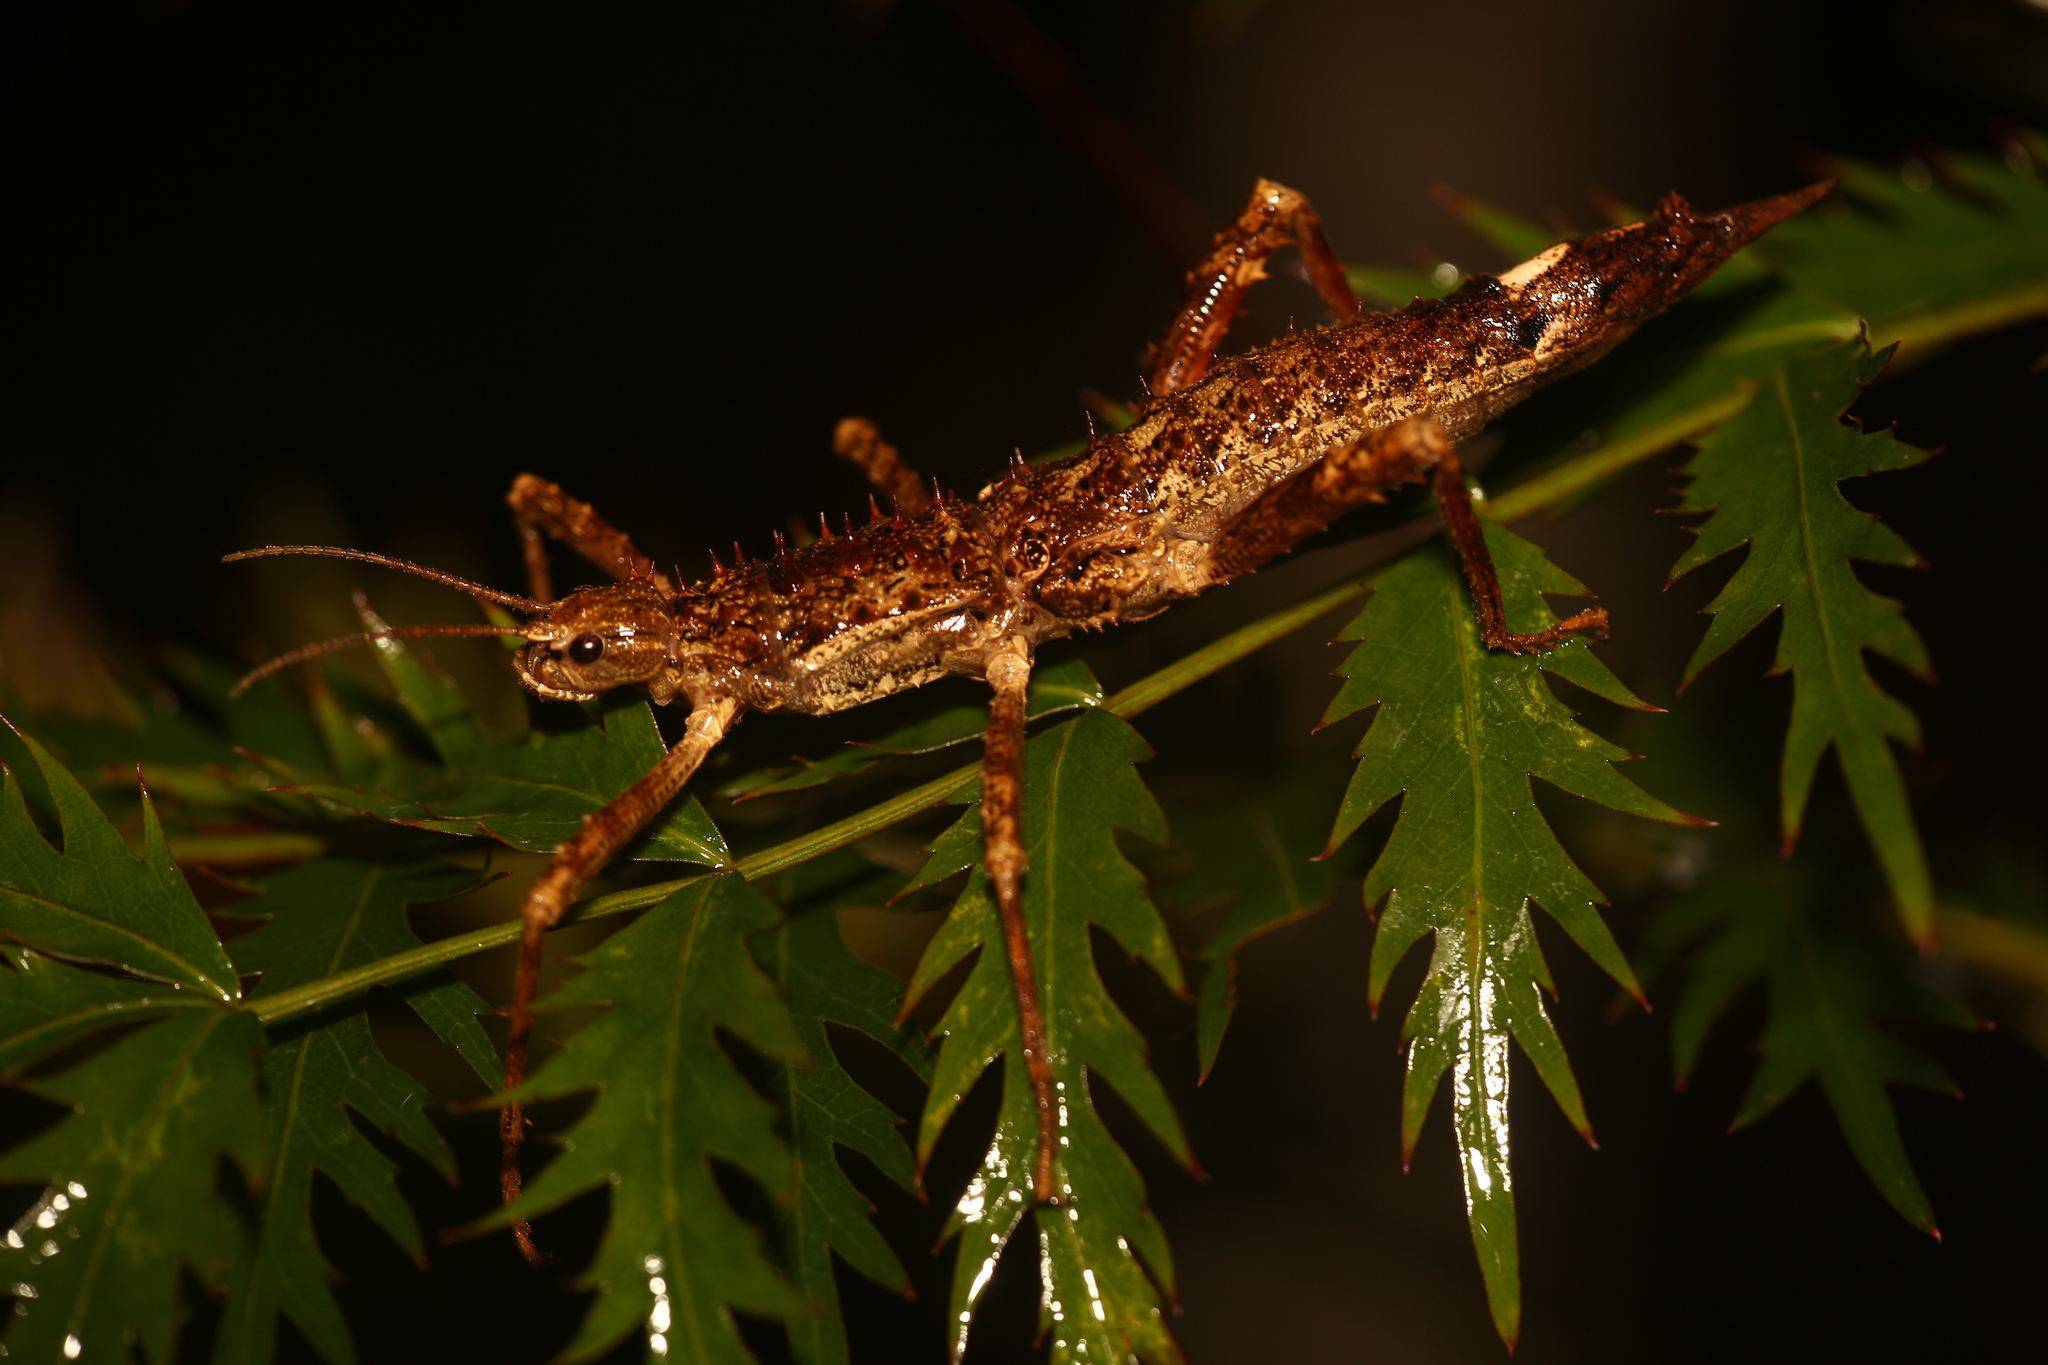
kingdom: Animalia
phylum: Arthropoda
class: Insecta
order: Phasmida
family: Lonchodidae
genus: Canachus
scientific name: Canachus harpyia
